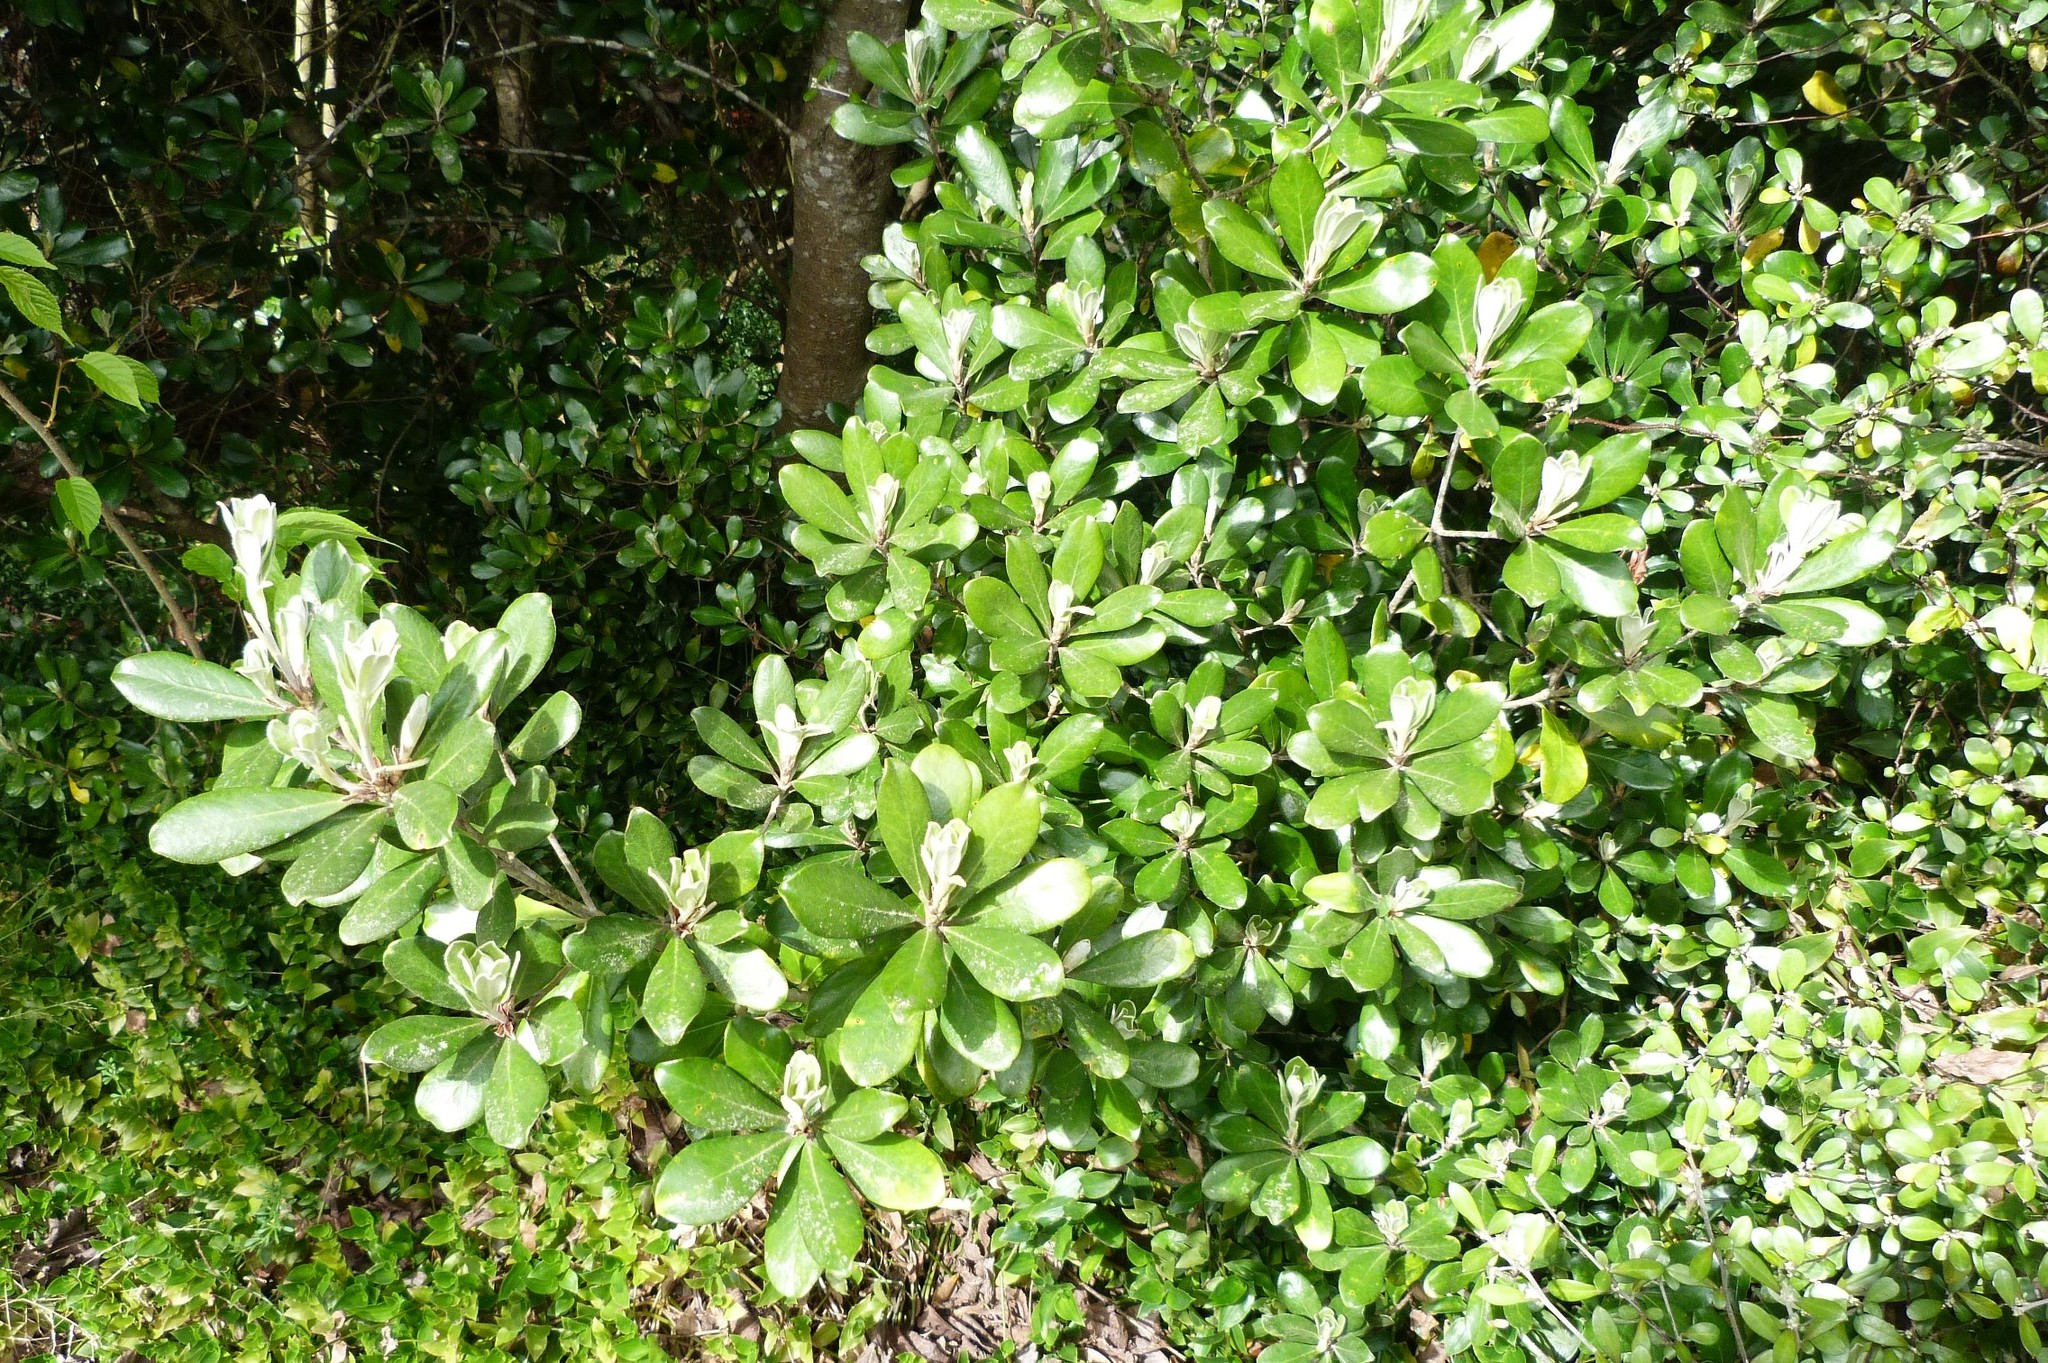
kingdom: Plantae
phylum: Tracheophyta
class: Magnoliopsida
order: Apiales
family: Pittosporaceae
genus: Pittosporum
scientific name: Pittosporum crassifolium
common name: Karo
